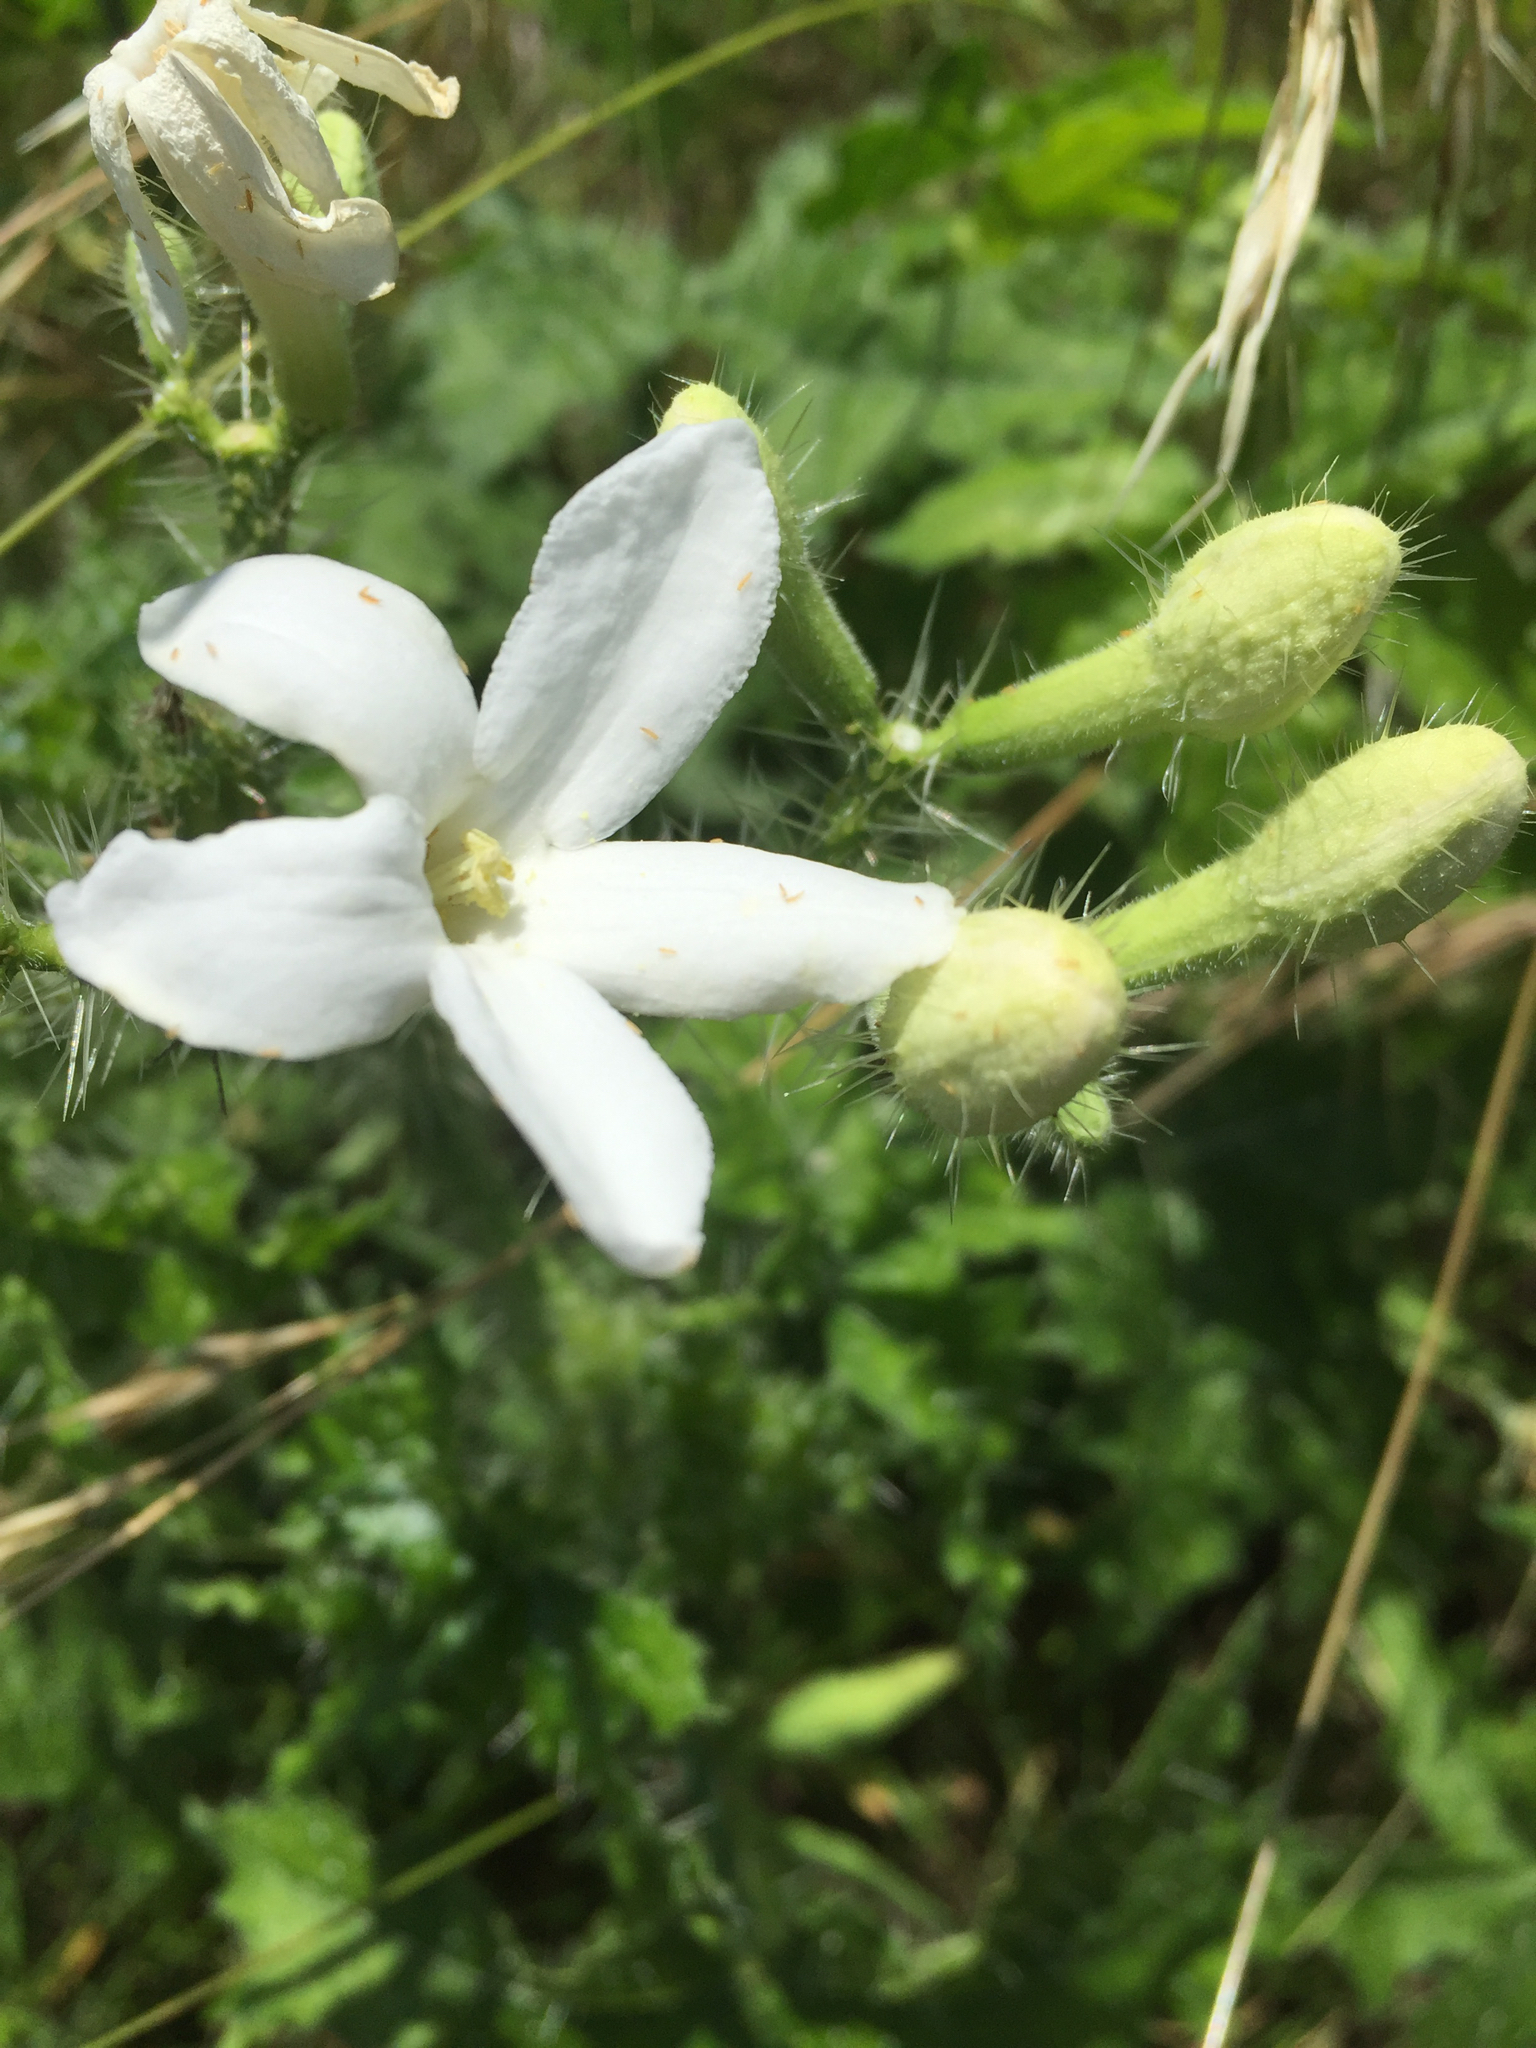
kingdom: Plantae
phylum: Tracheophyta
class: Magnoliopsida
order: Malpighiales
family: Euphorbiaceae
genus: Cnidoscolus
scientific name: Cnidoscolus texanus
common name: Texas bull-nettle
